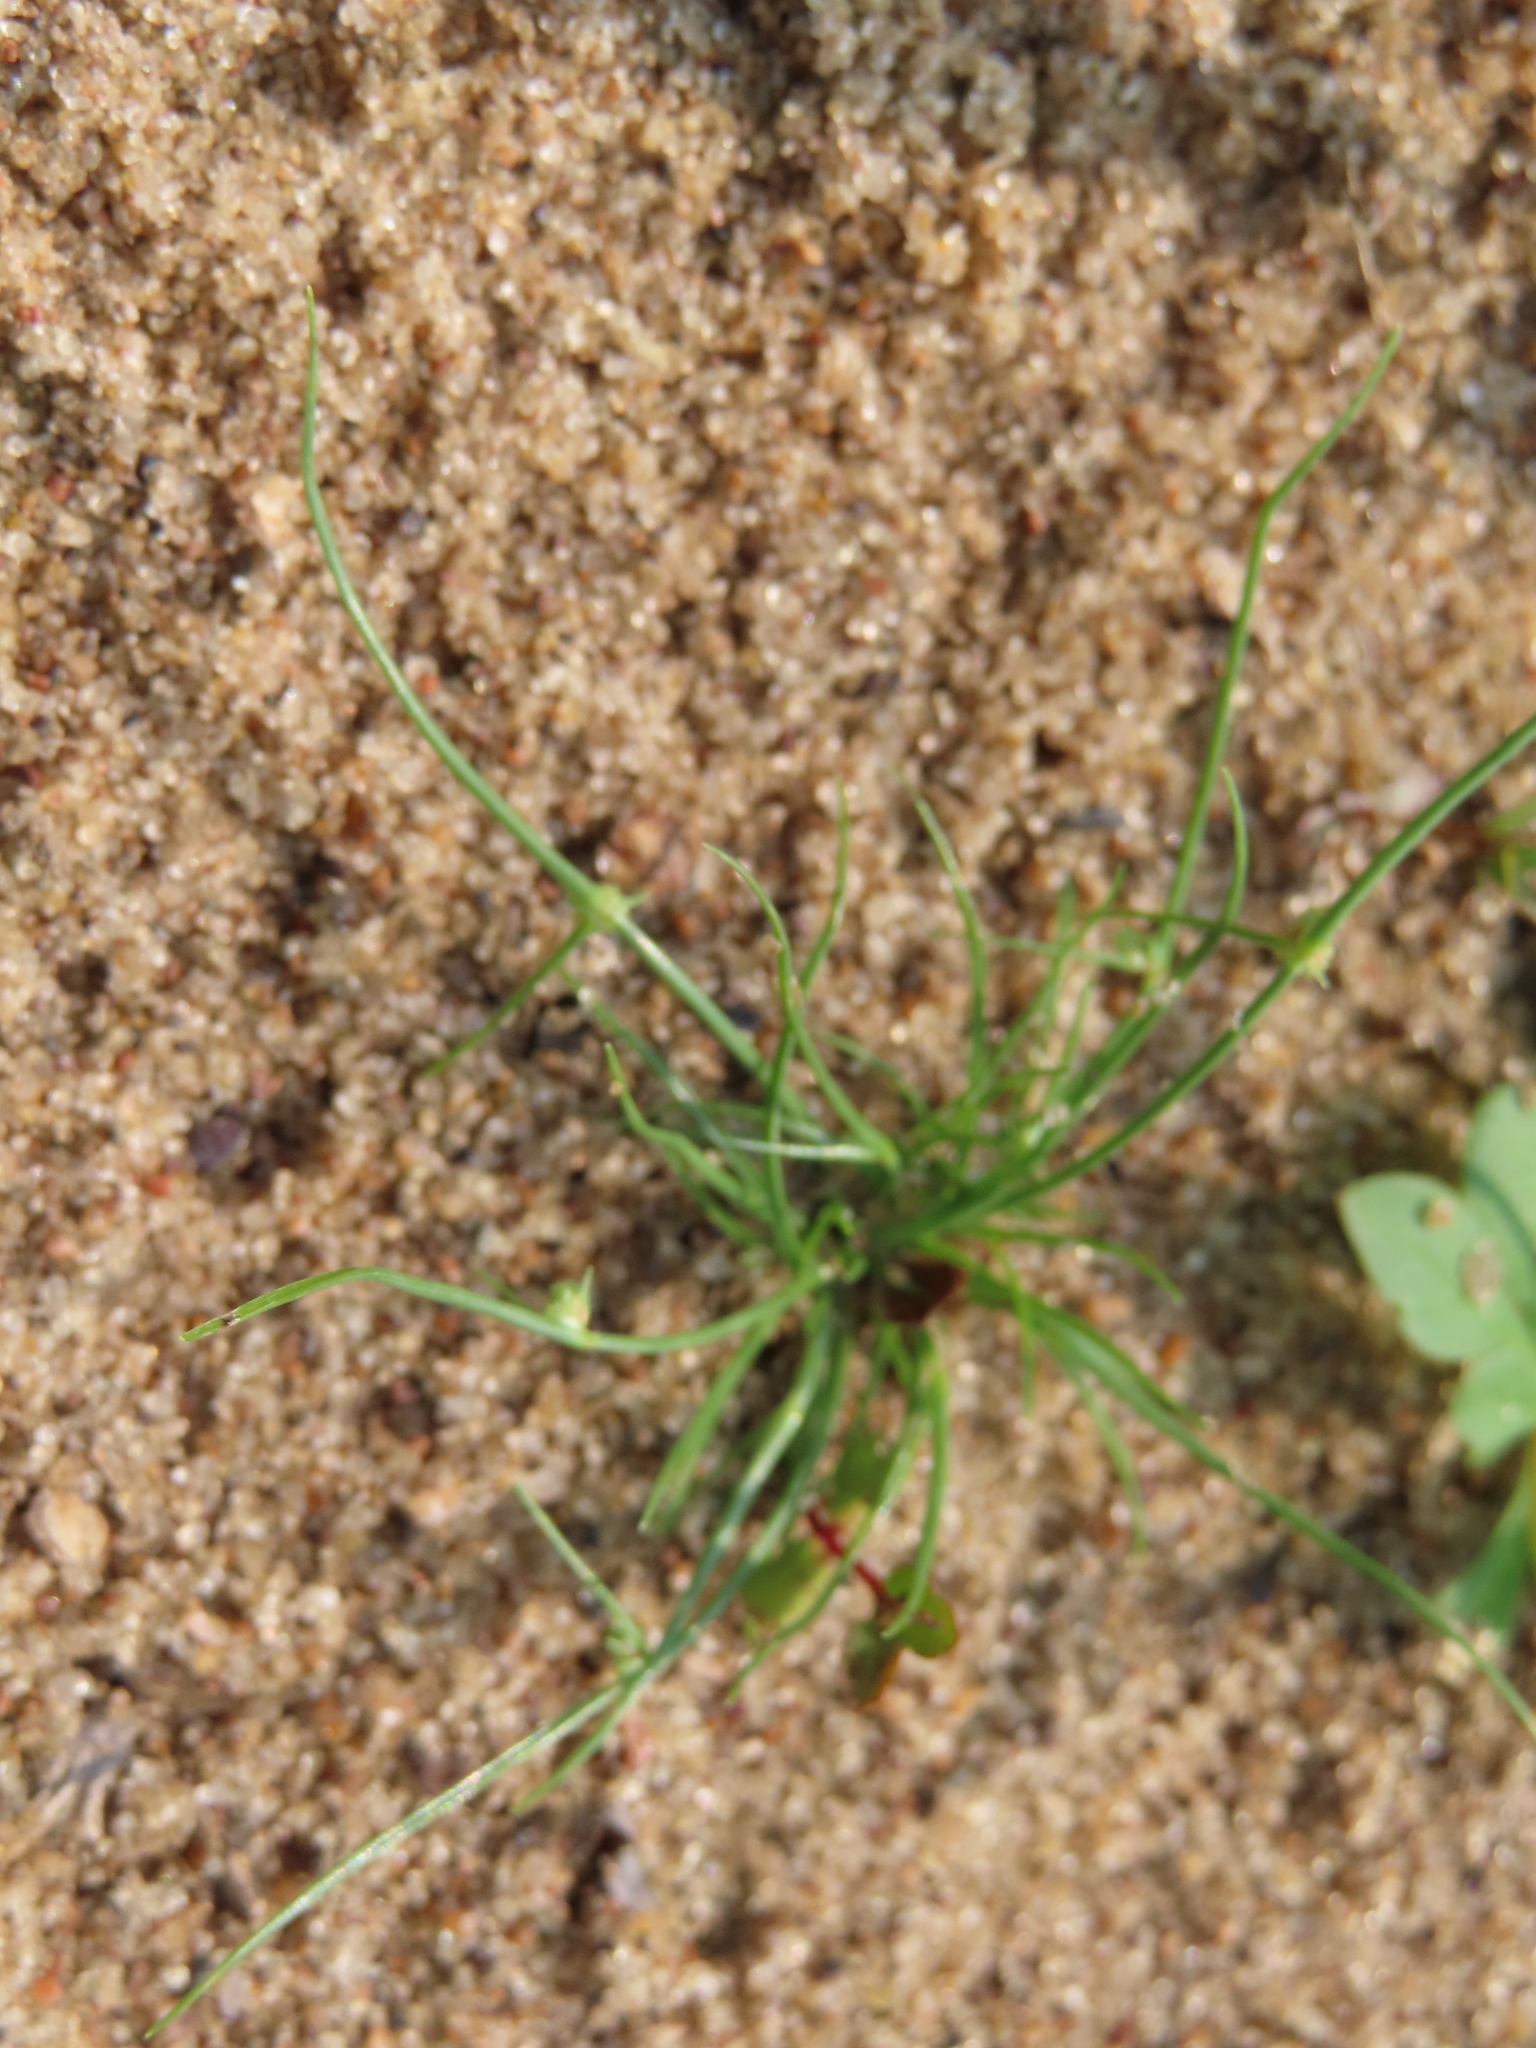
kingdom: Plantae
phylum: Tracheophyta
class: Liliopsida
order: Poales
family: Cyperaceae
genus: Cyperus
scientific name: Cyperus subsquarrosus
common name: Dwarf bulrush
